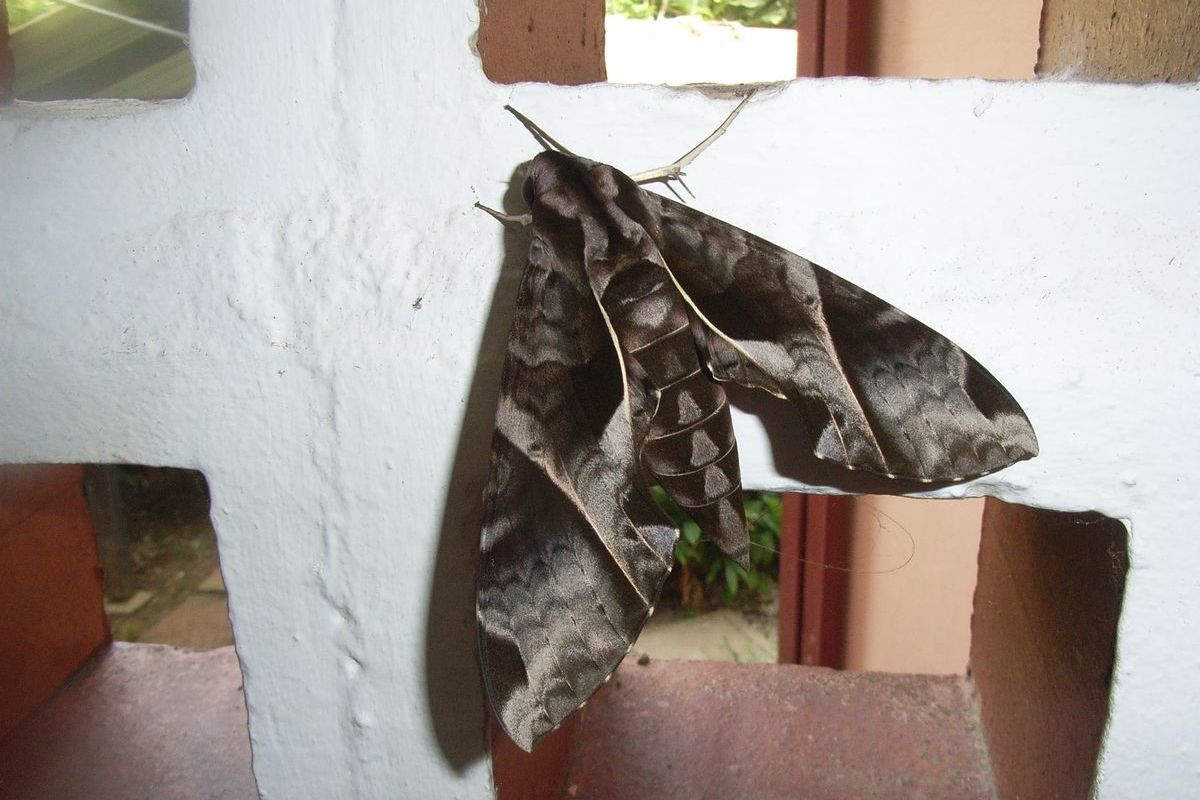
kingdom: Animalia
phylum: Arthropoda
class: Insecta
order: Lepidoptera
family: Sphingidae
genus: Eumorpha
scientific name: Eumorpha anchemolus
